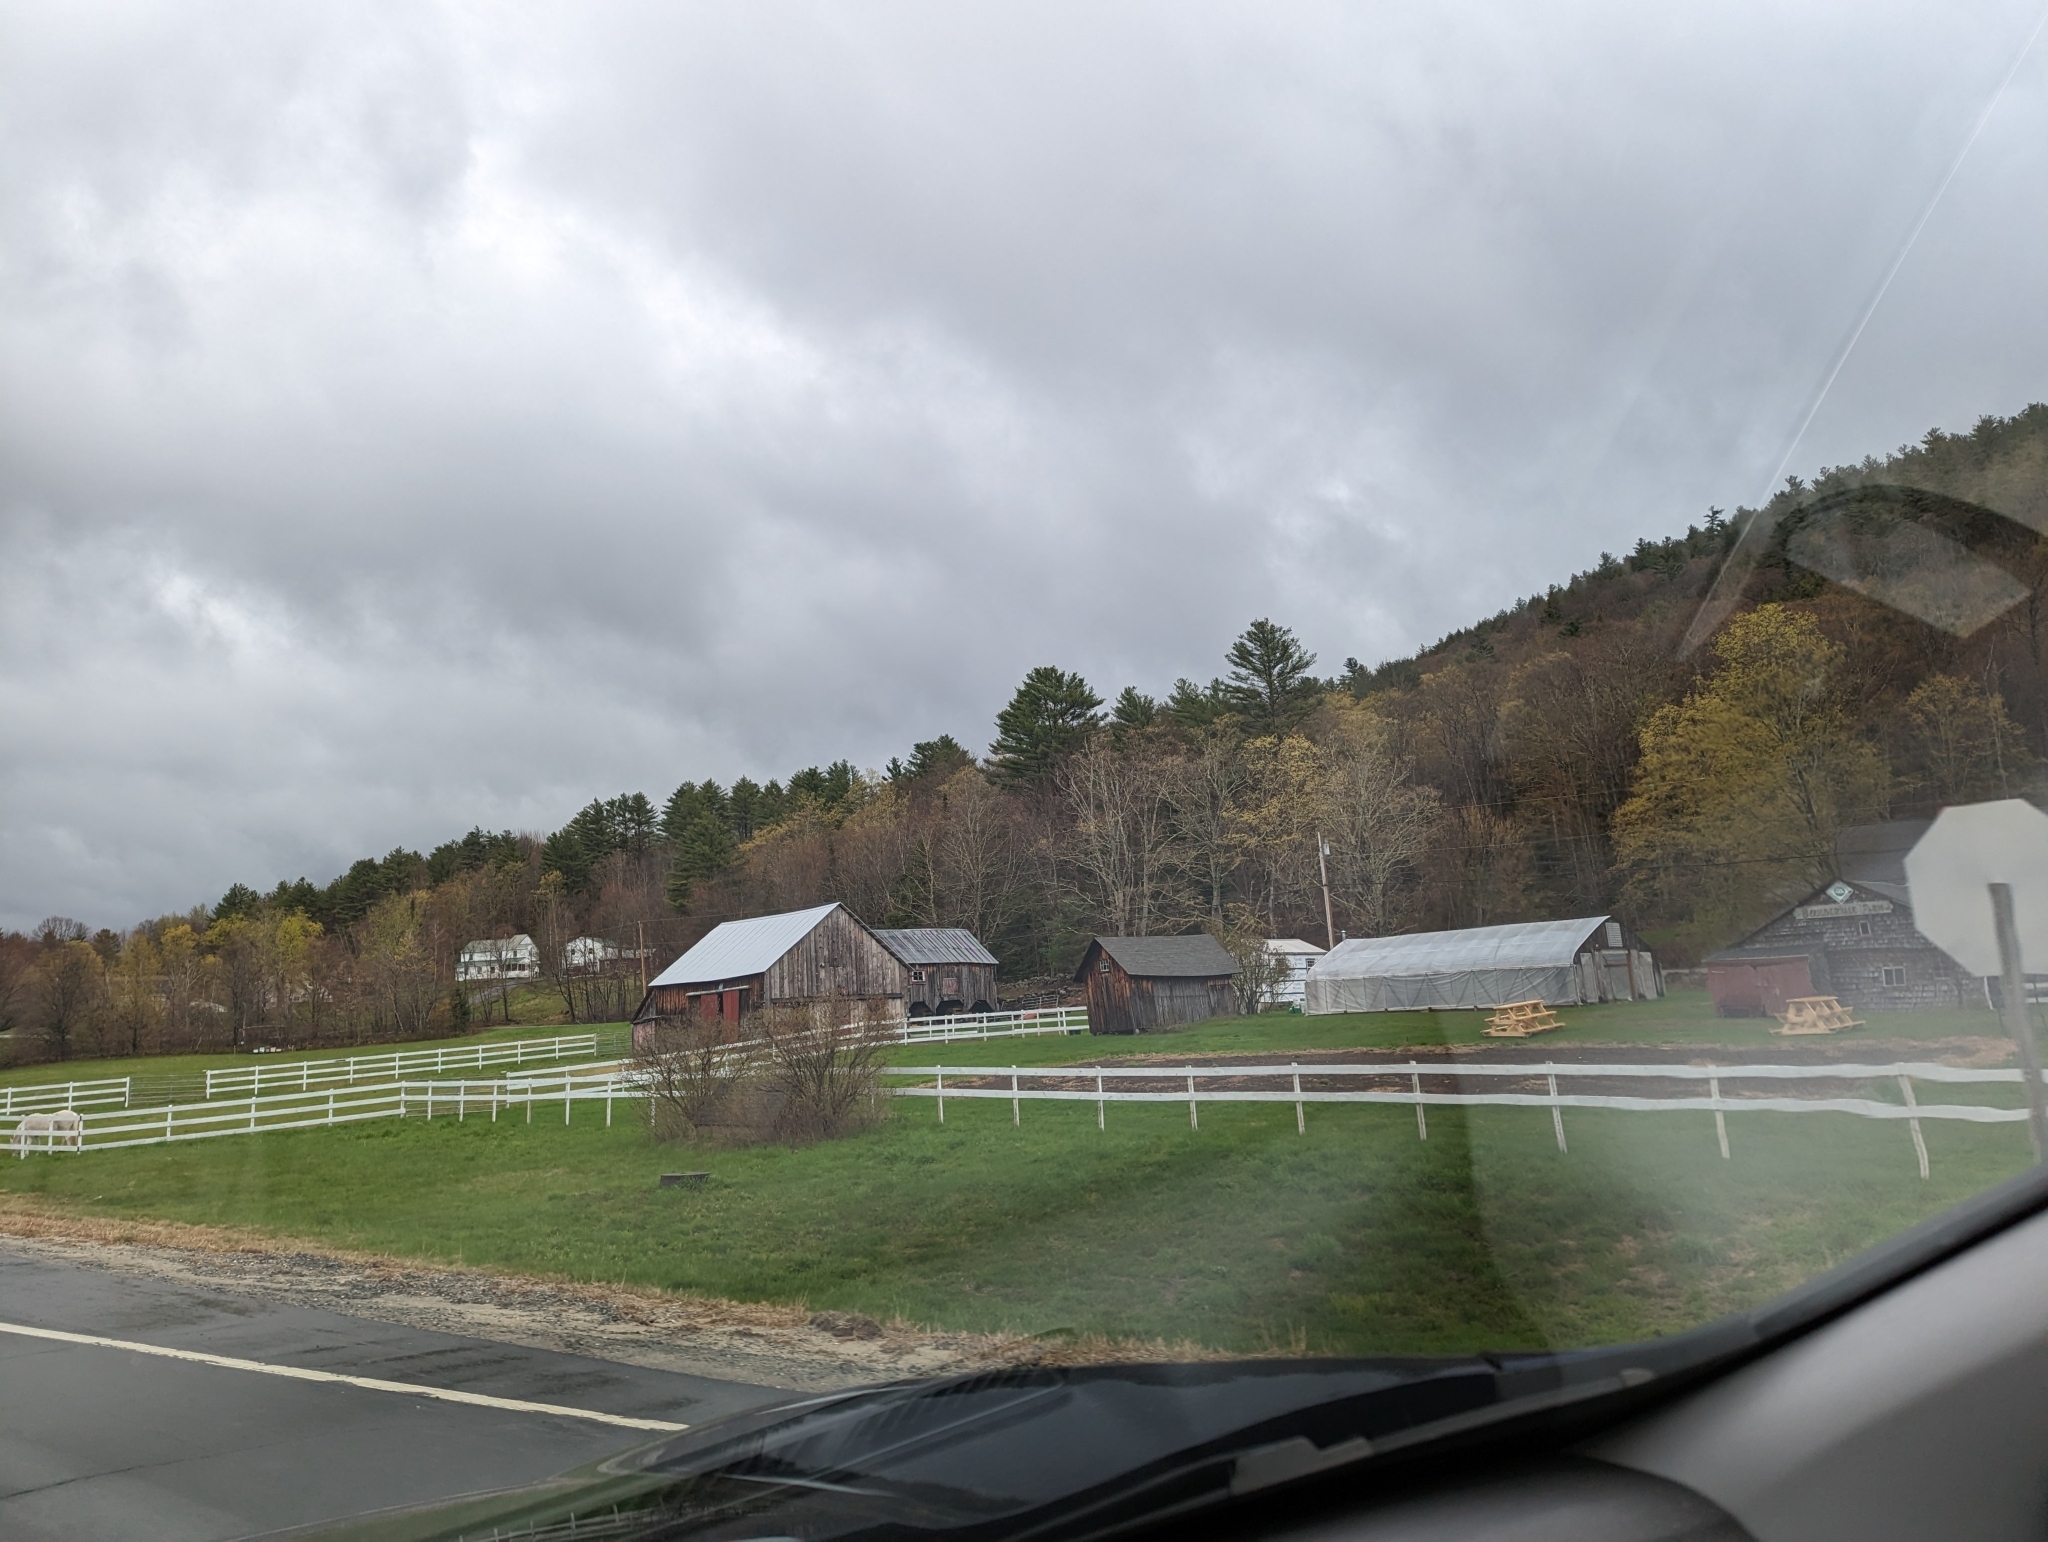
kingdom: Plantae
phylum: Tracheophyta
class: Pinopsida
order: Pinales
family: Pinaceae
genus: Pinus
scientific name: Pinus strobus
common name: Weymouth pine
